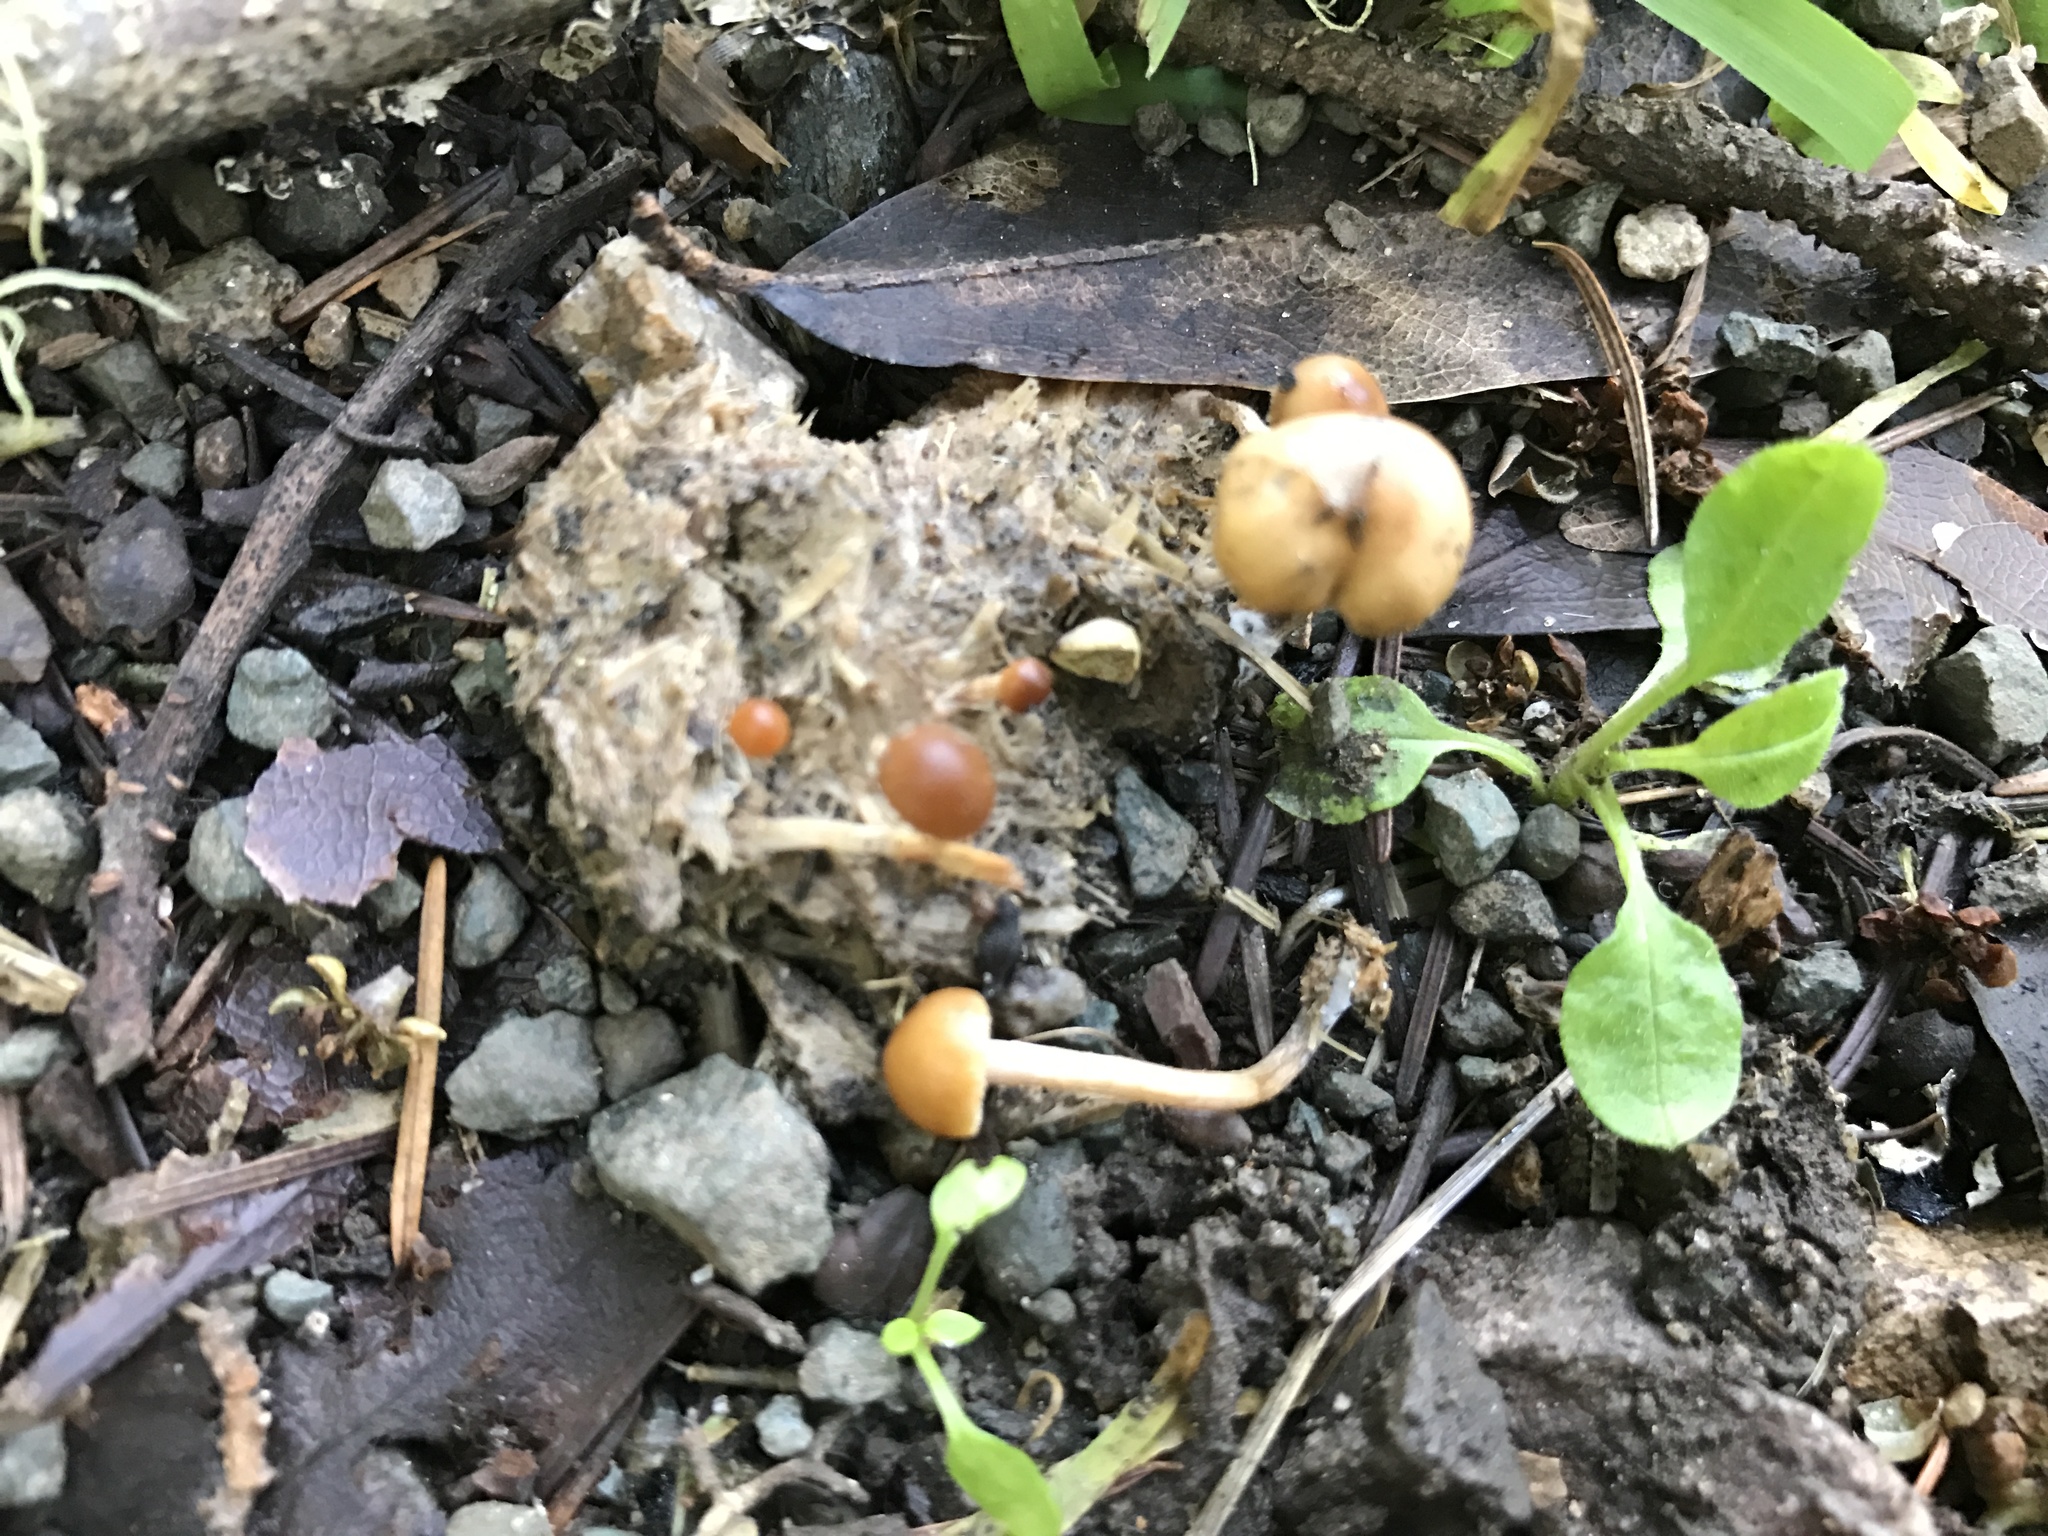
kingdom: Fungi
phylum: Basidiomycota
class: Agaricomycetes
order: Agaricales
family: Strophariaceae
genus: Deconica
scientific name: Deconica coprophila
